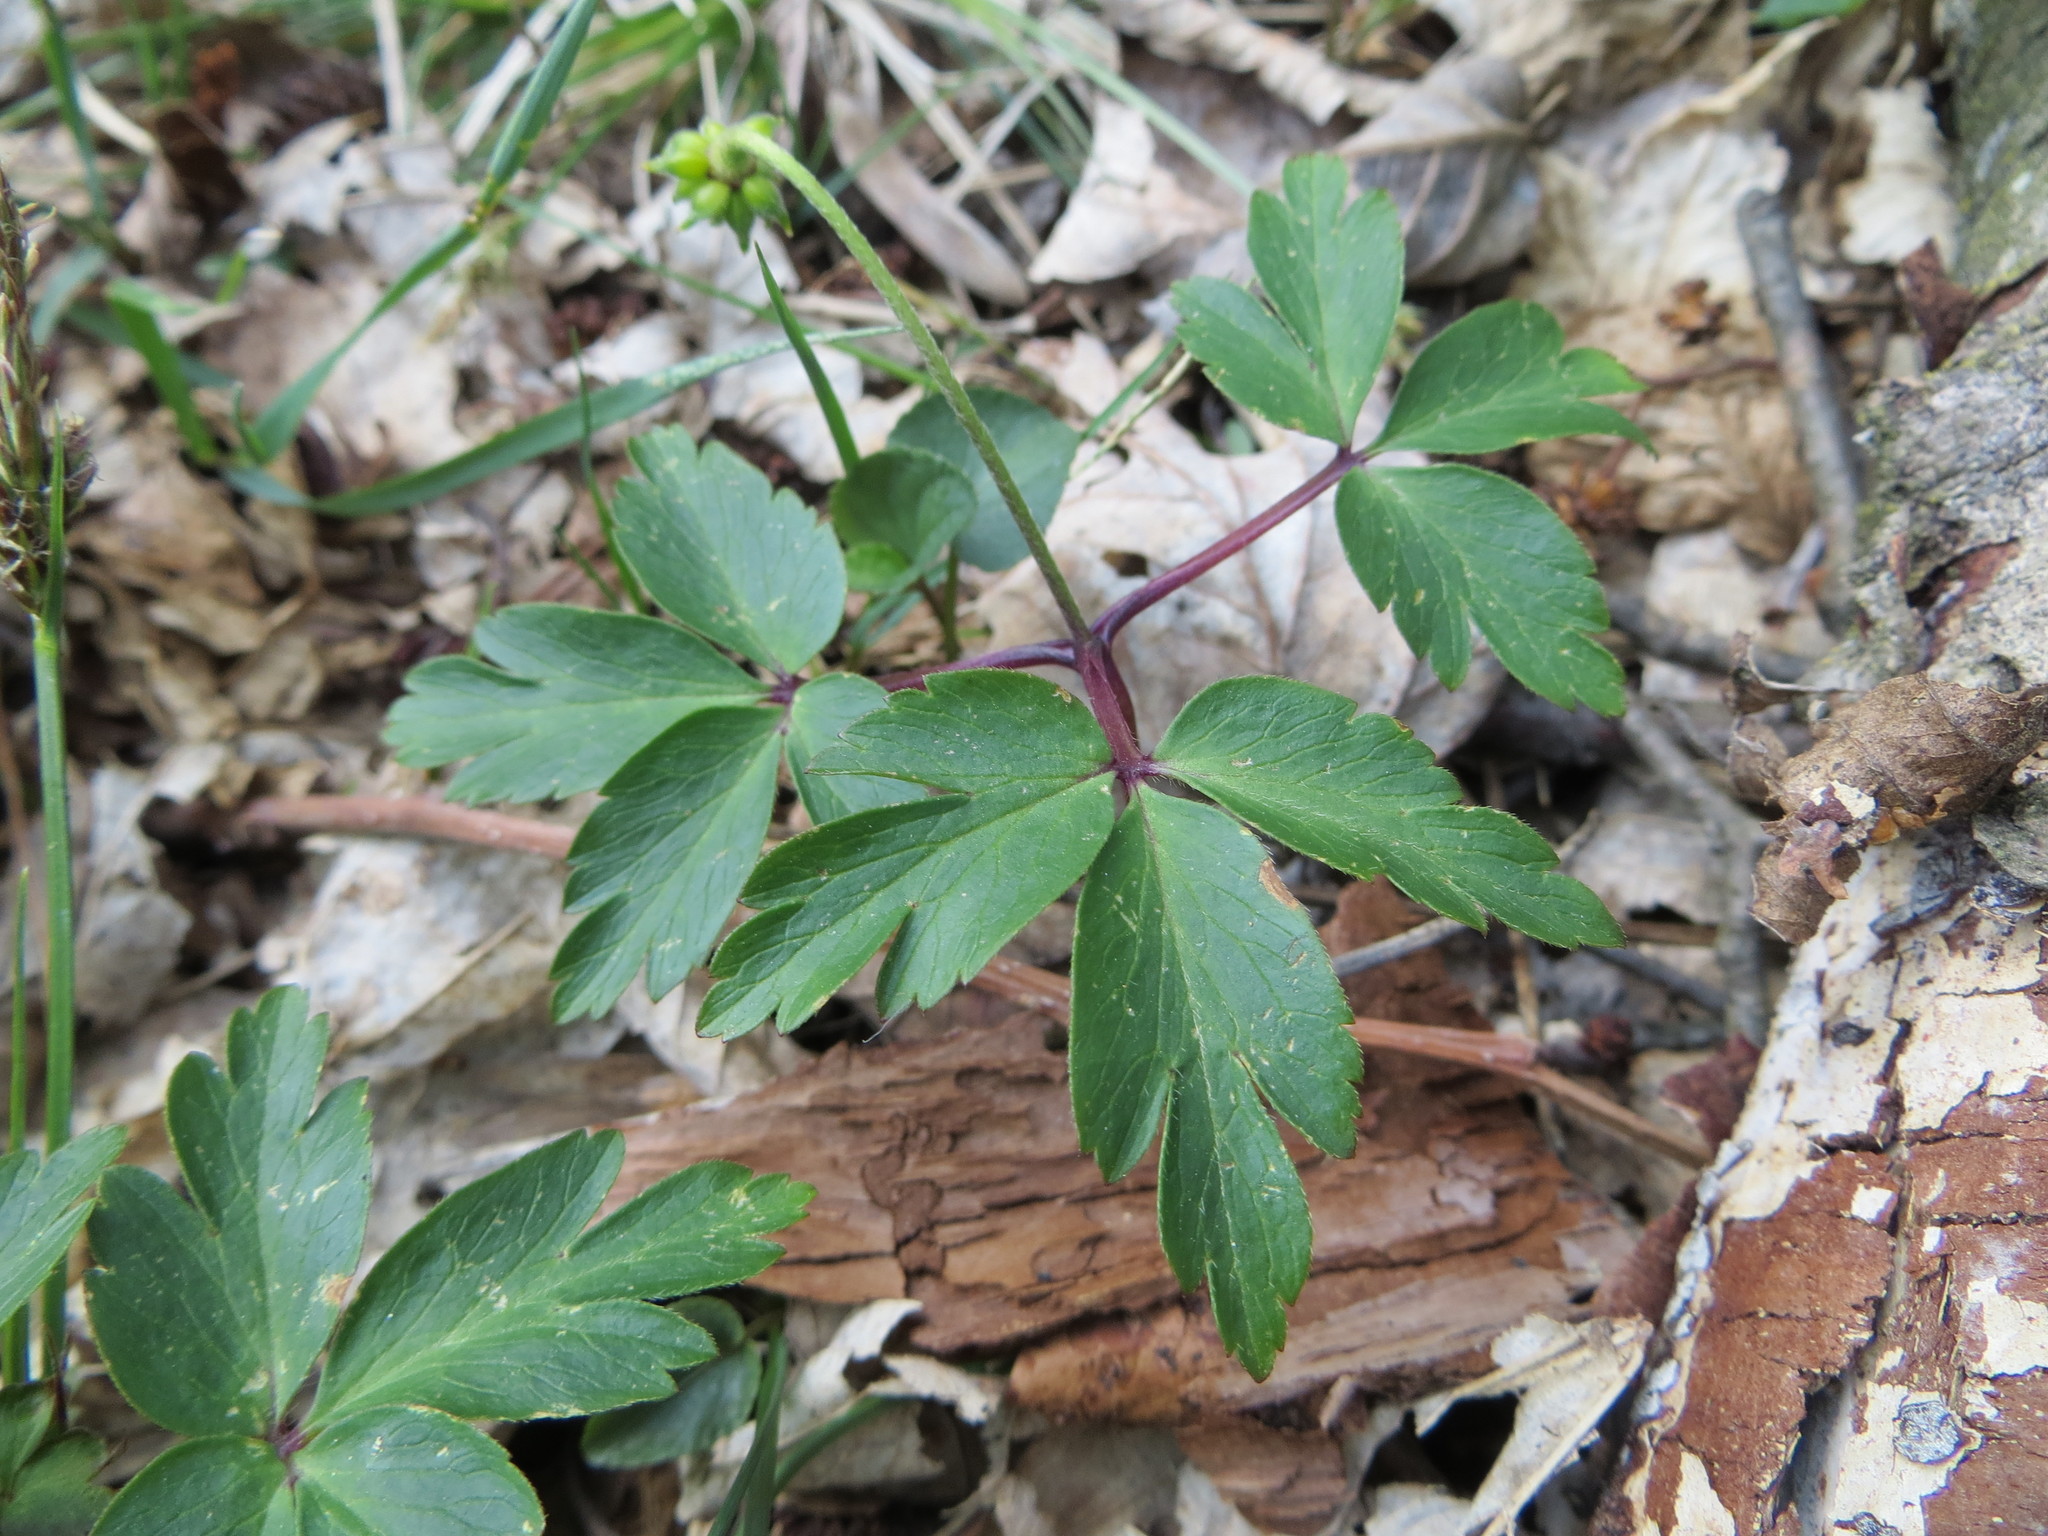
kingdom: Plantae
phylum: Tracheophyta
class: Magnoliopsida
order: Ranunculales
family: Ranunculaceae
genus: Anemone
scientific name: Anemone nemorosa
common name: Wood anemone
